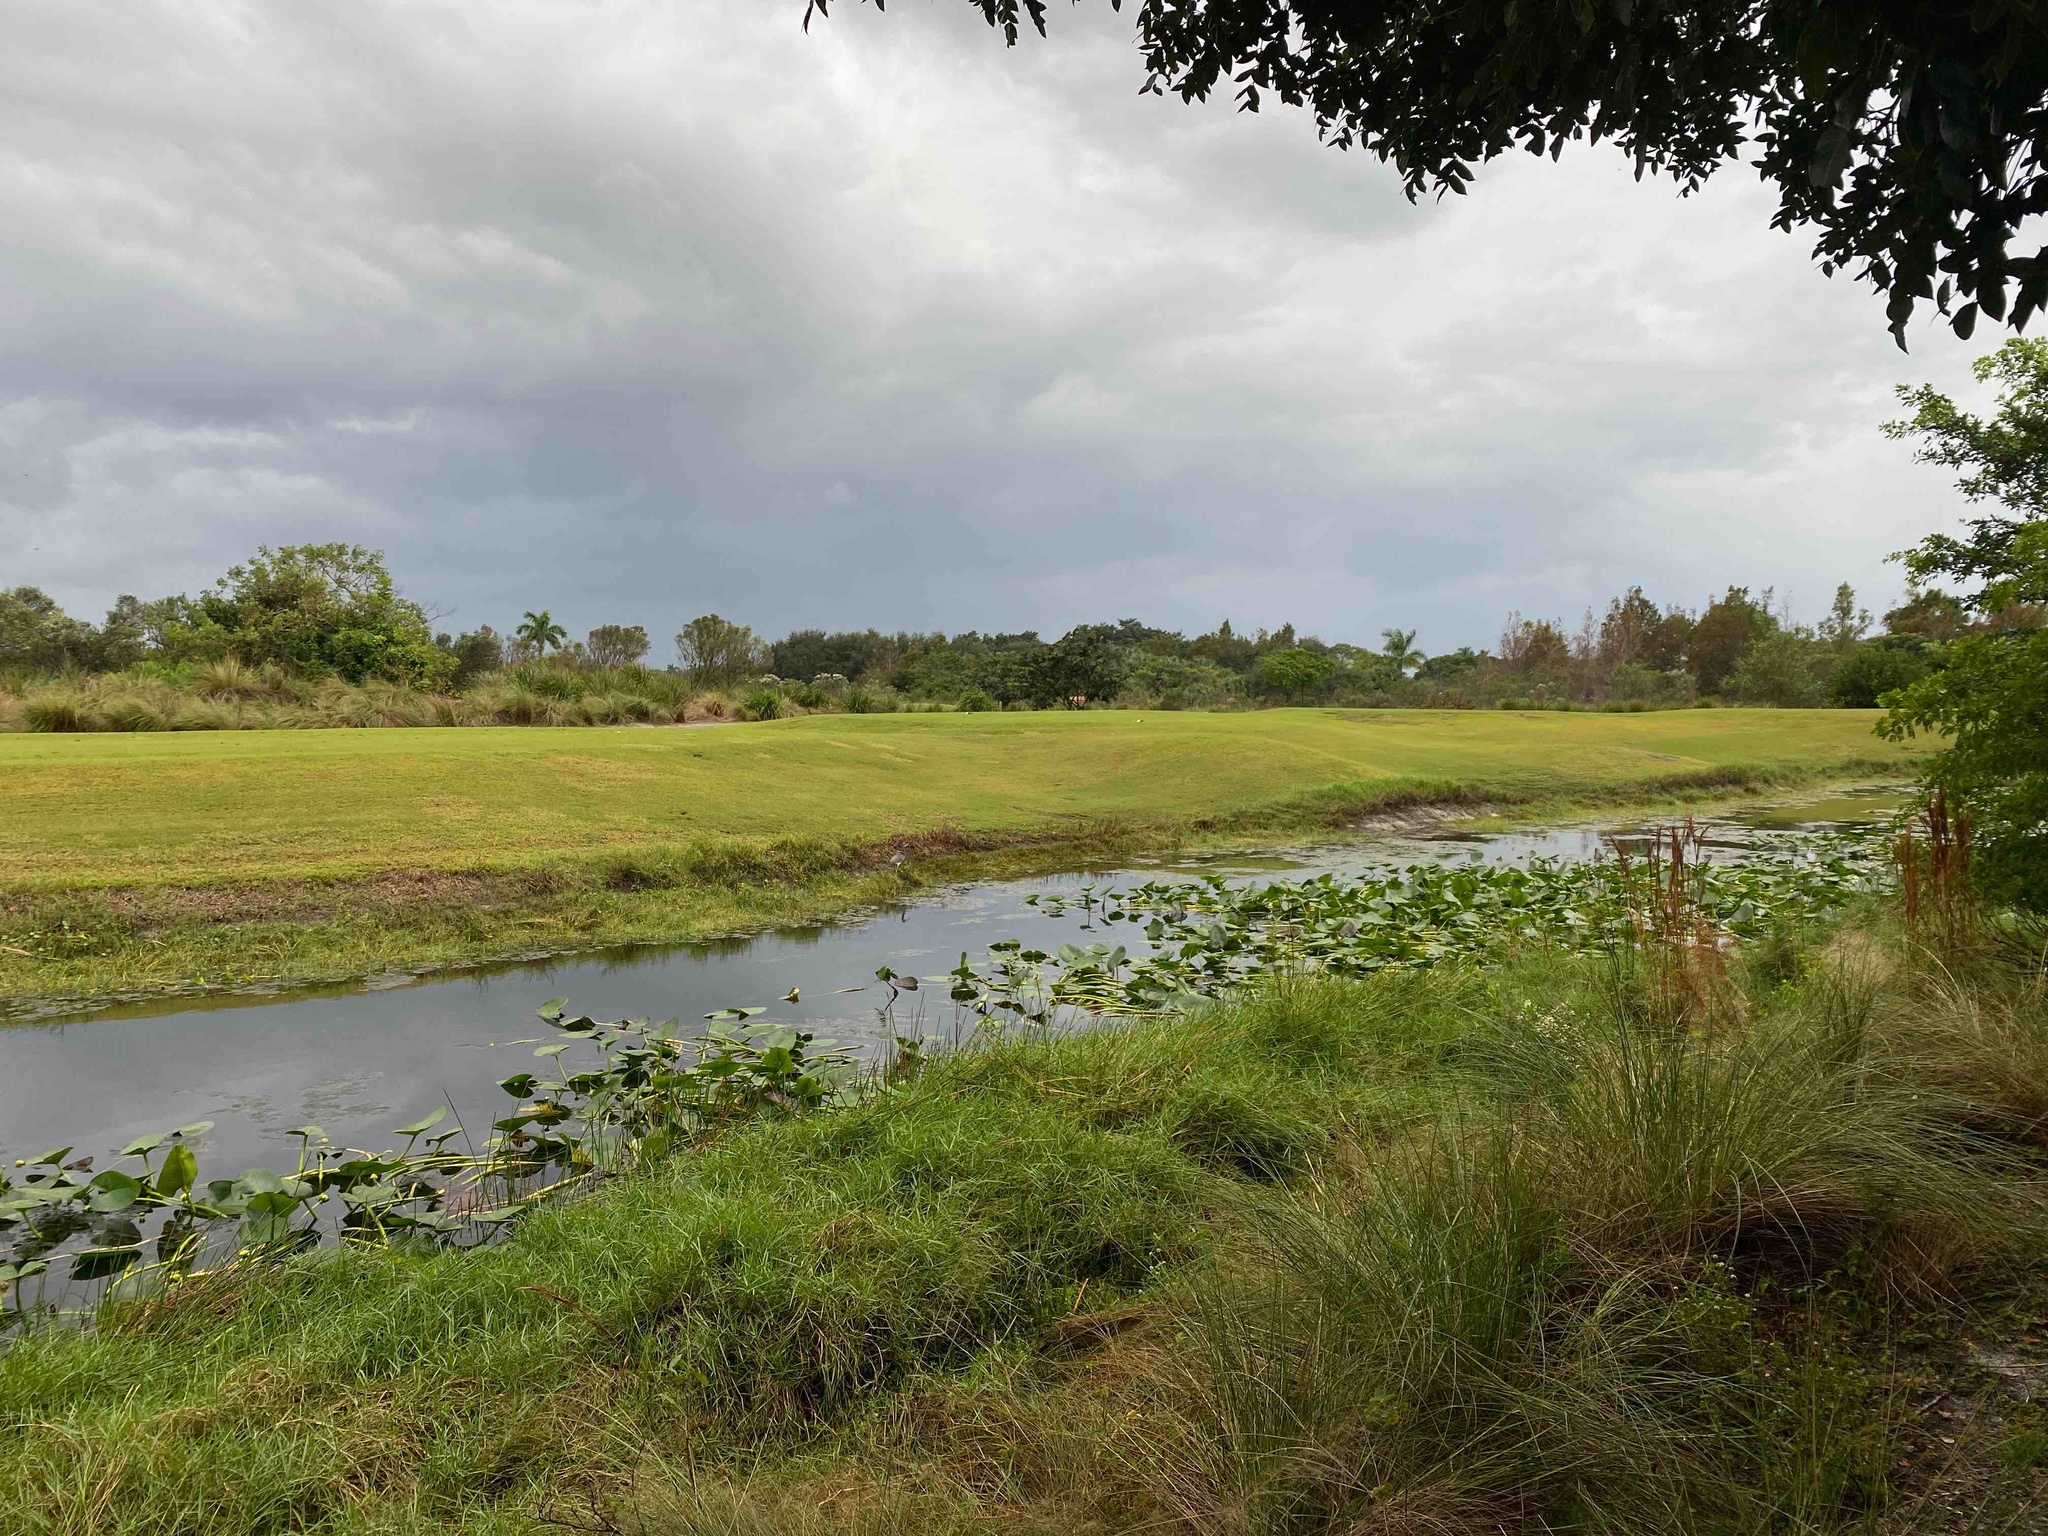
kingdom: Animalia
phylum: Chordata
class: Aves
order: Pelecaniformes
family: Ardeidae
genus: Egretta
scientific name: Egretta tricolor
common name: Tricolored heron
